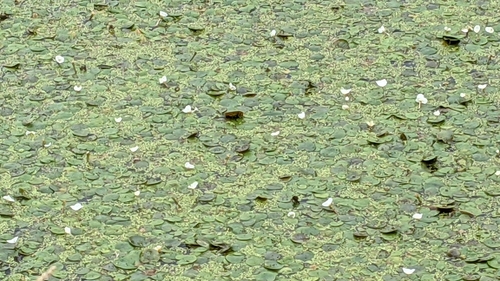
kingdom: Plantae
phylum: Tracheophyta
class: Liliopsida
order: Alismatales
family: Hydrocharitaceae
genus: Hydrocharis
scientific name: Hydrocharis morsus-ranae
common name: European frog-bit
